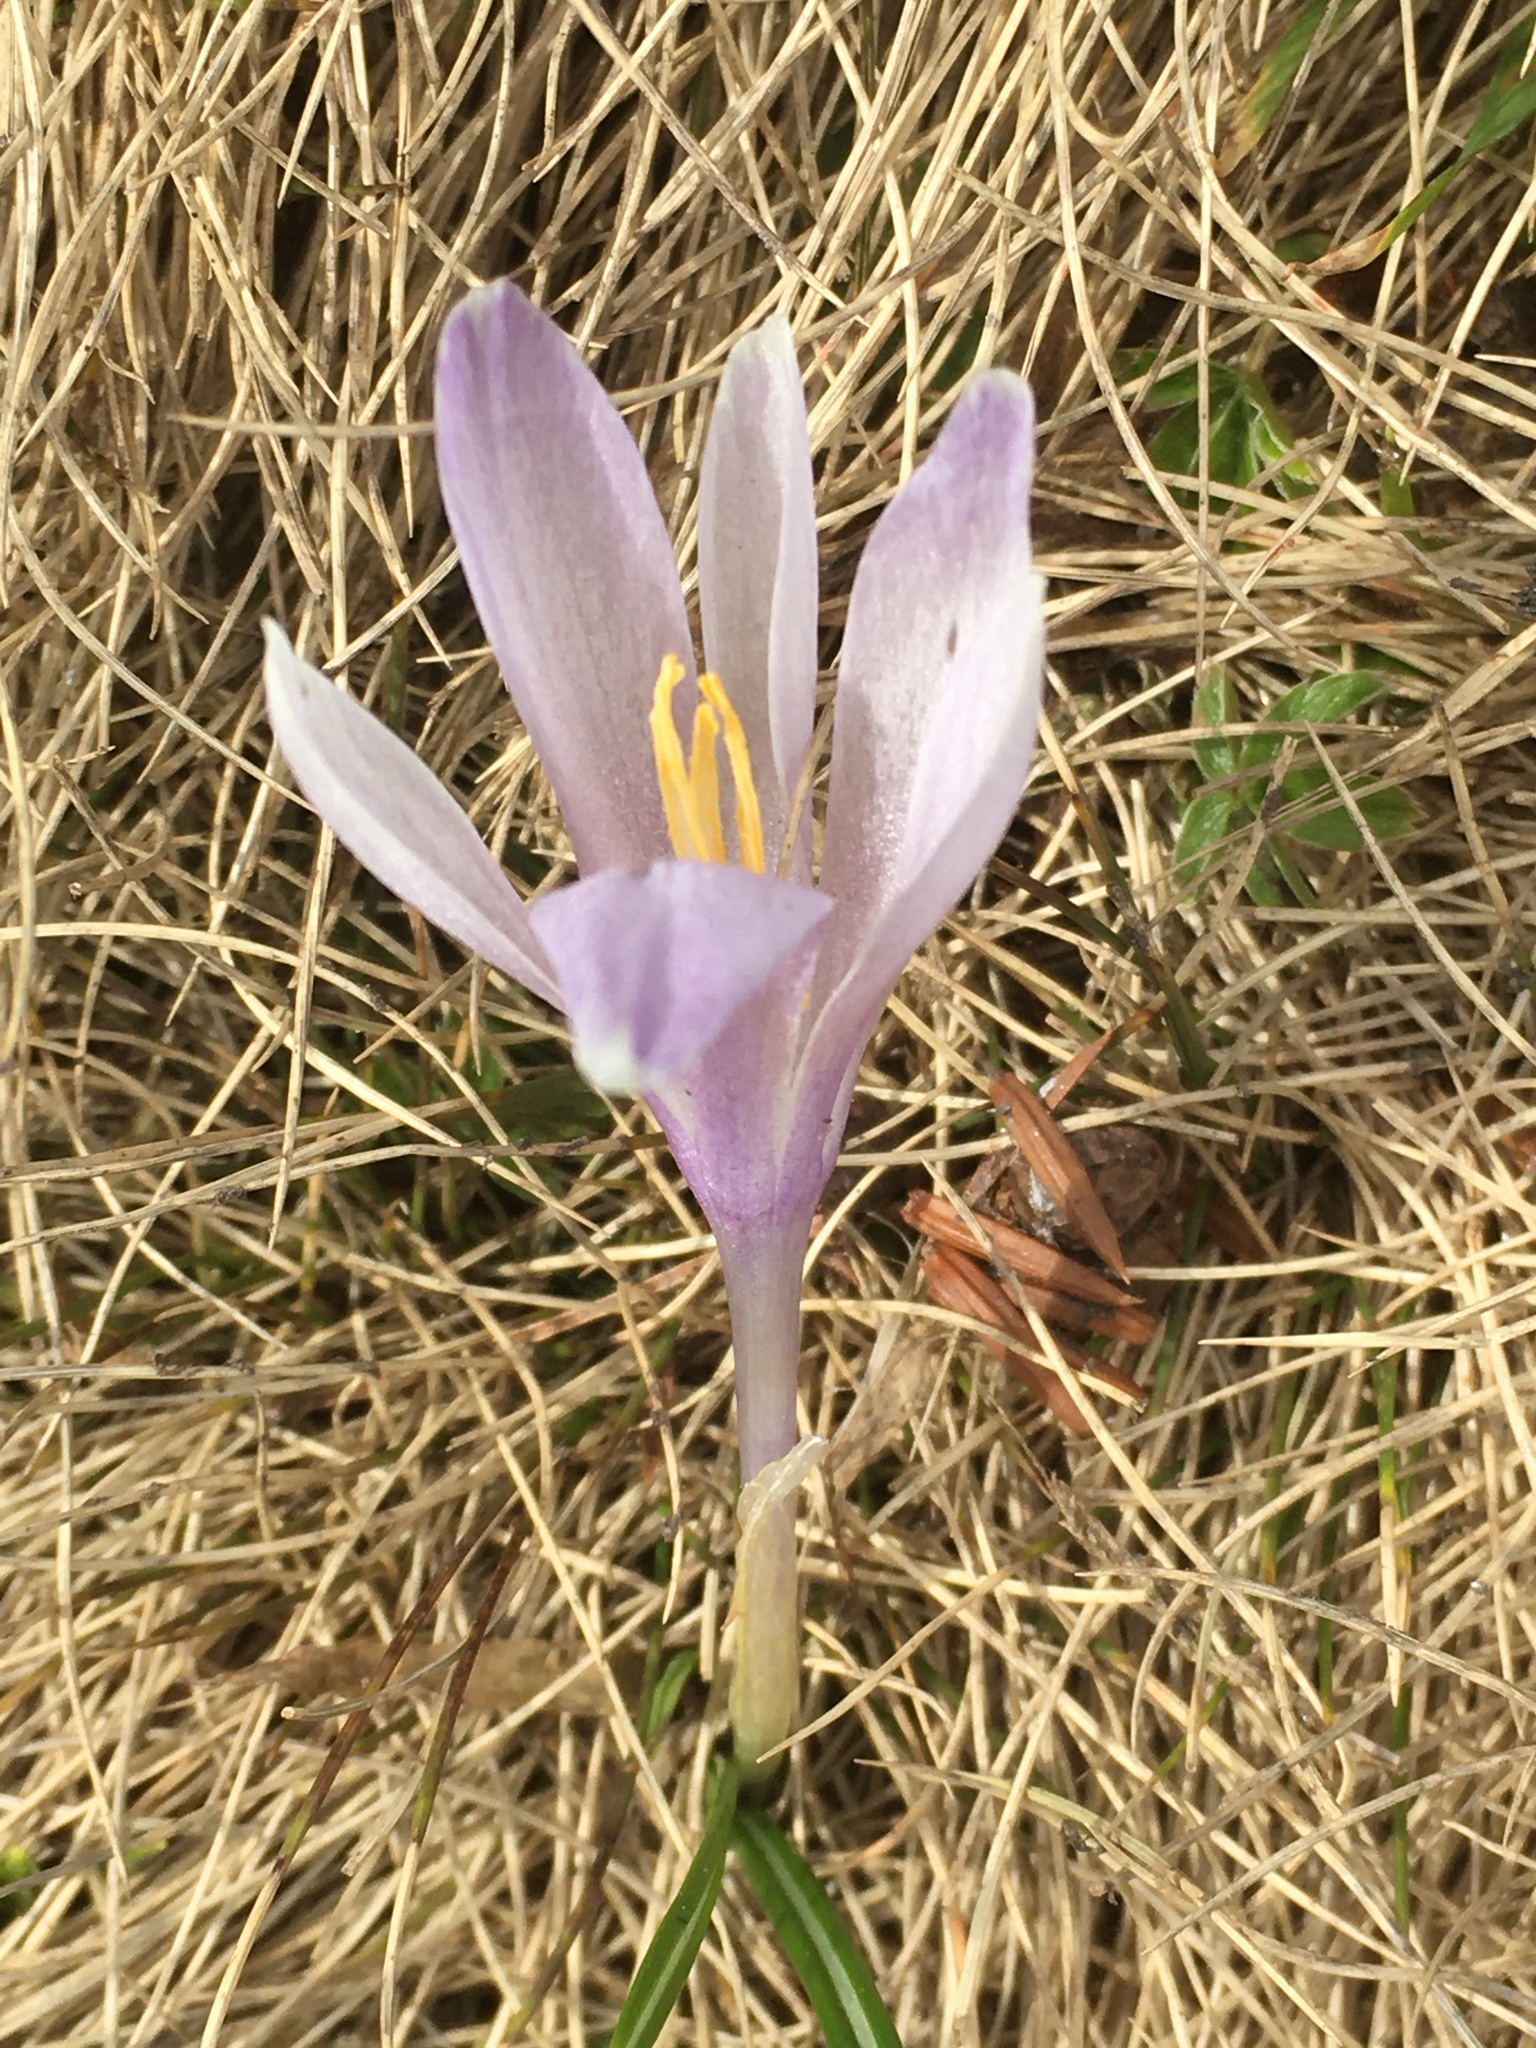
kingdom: Plantae
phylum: Tracheophyta
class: Liliopsida
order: Asparagales
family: Iridaceae
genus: Crocus
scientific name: Crocus vernus
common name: Spring crocus
